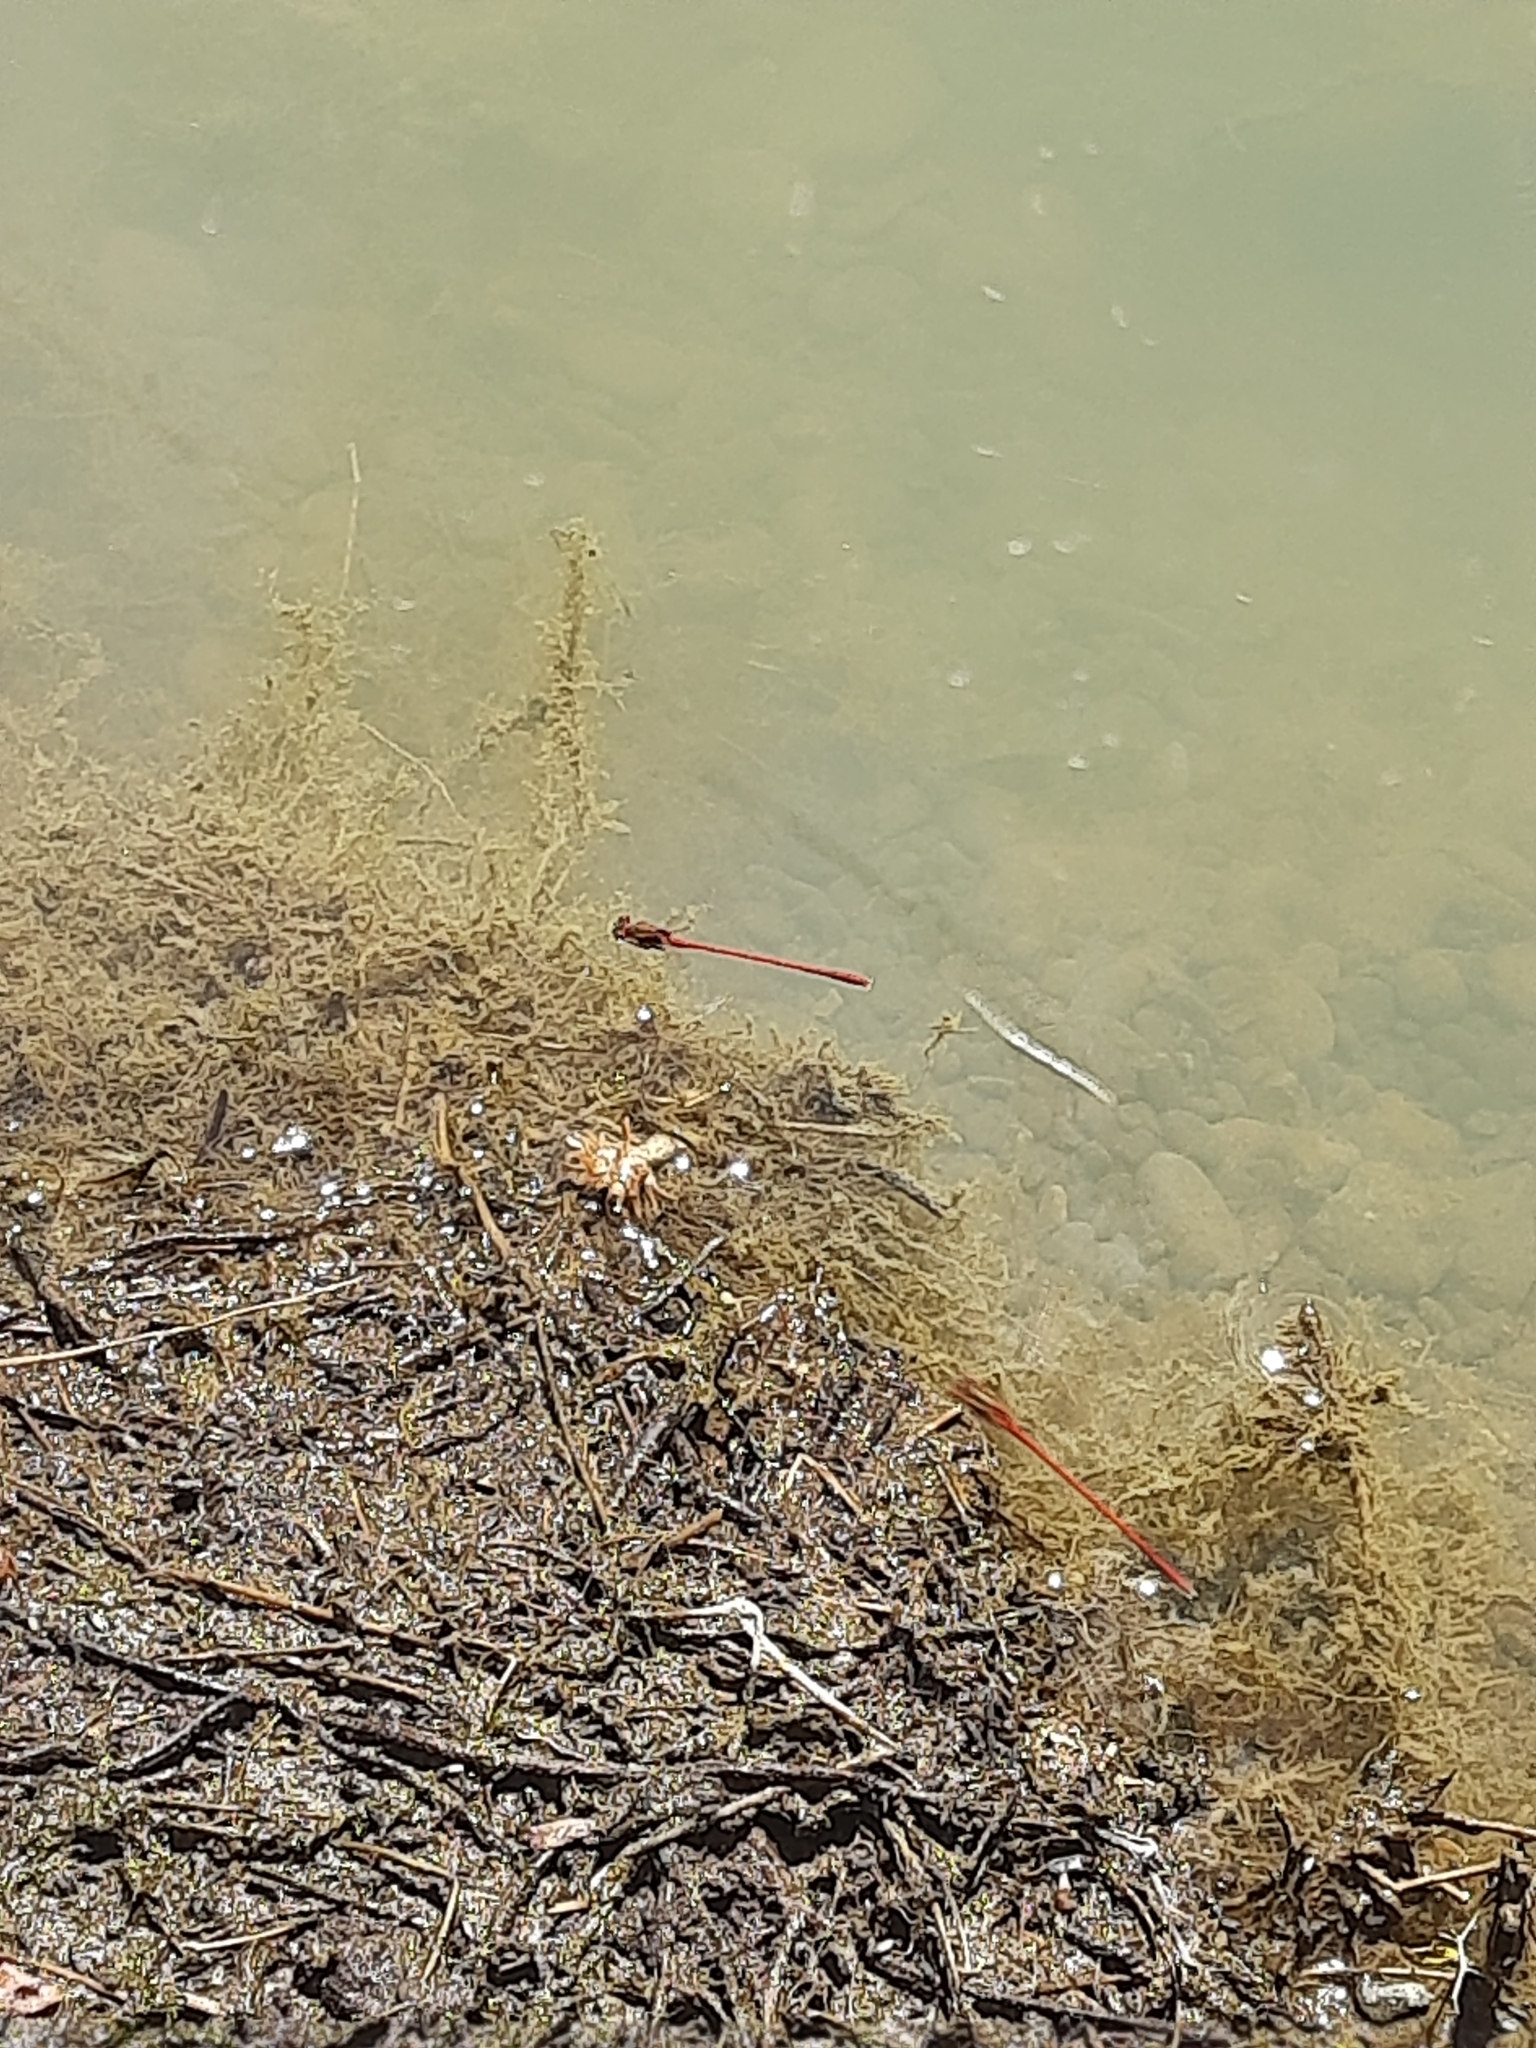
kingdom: Animalia
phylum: Arthropoda
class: Insecta
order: Odonata
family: Coenagrionidae
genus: Xanthocnemis
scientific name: Xanthocnemis zealandica
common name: Common redcoat damselfly
